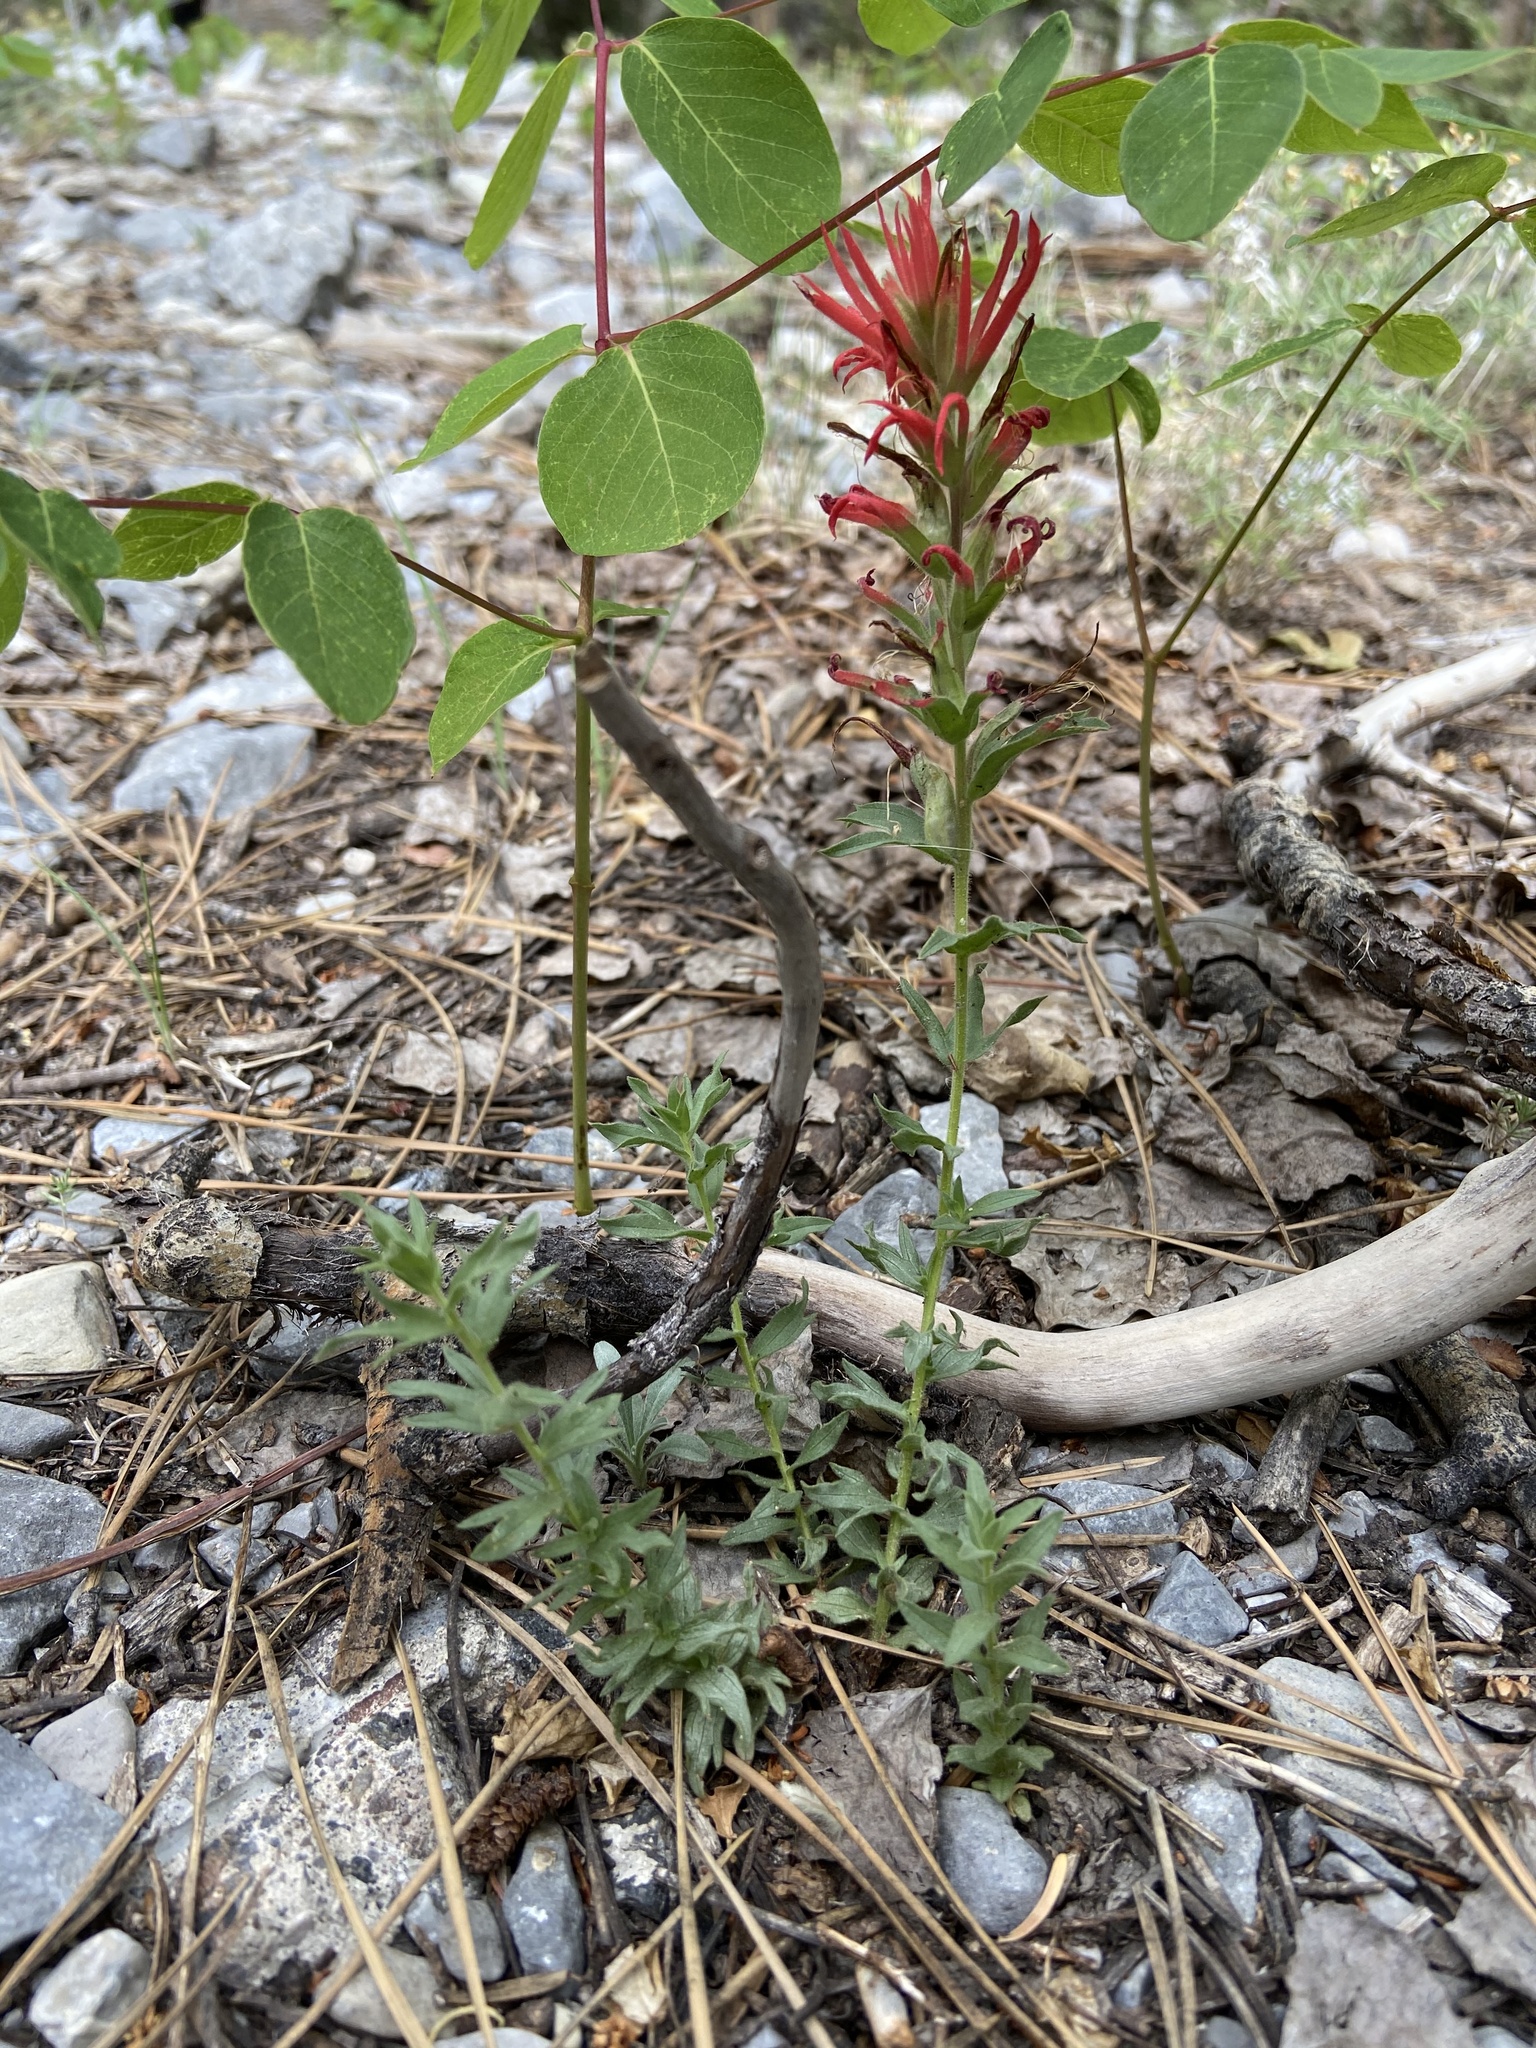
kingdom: Plantae
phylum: Tracheophyta
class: Magnoliopsida
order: Lamiales
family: Orobanchaceae
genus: Castilleja
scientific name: Castilleja martini
